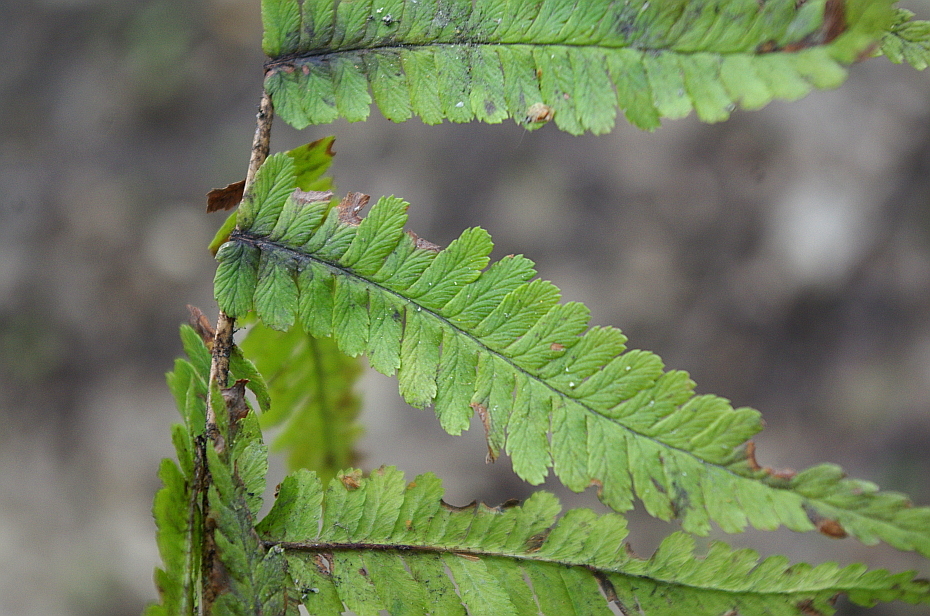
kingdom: Plantae
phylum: Tracheophyta
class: Polypodiopsida
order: Polypodiales
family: Dryopteridaceae
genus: Dryopteris
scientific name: Dryopteris filix-mas
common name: Male fern
